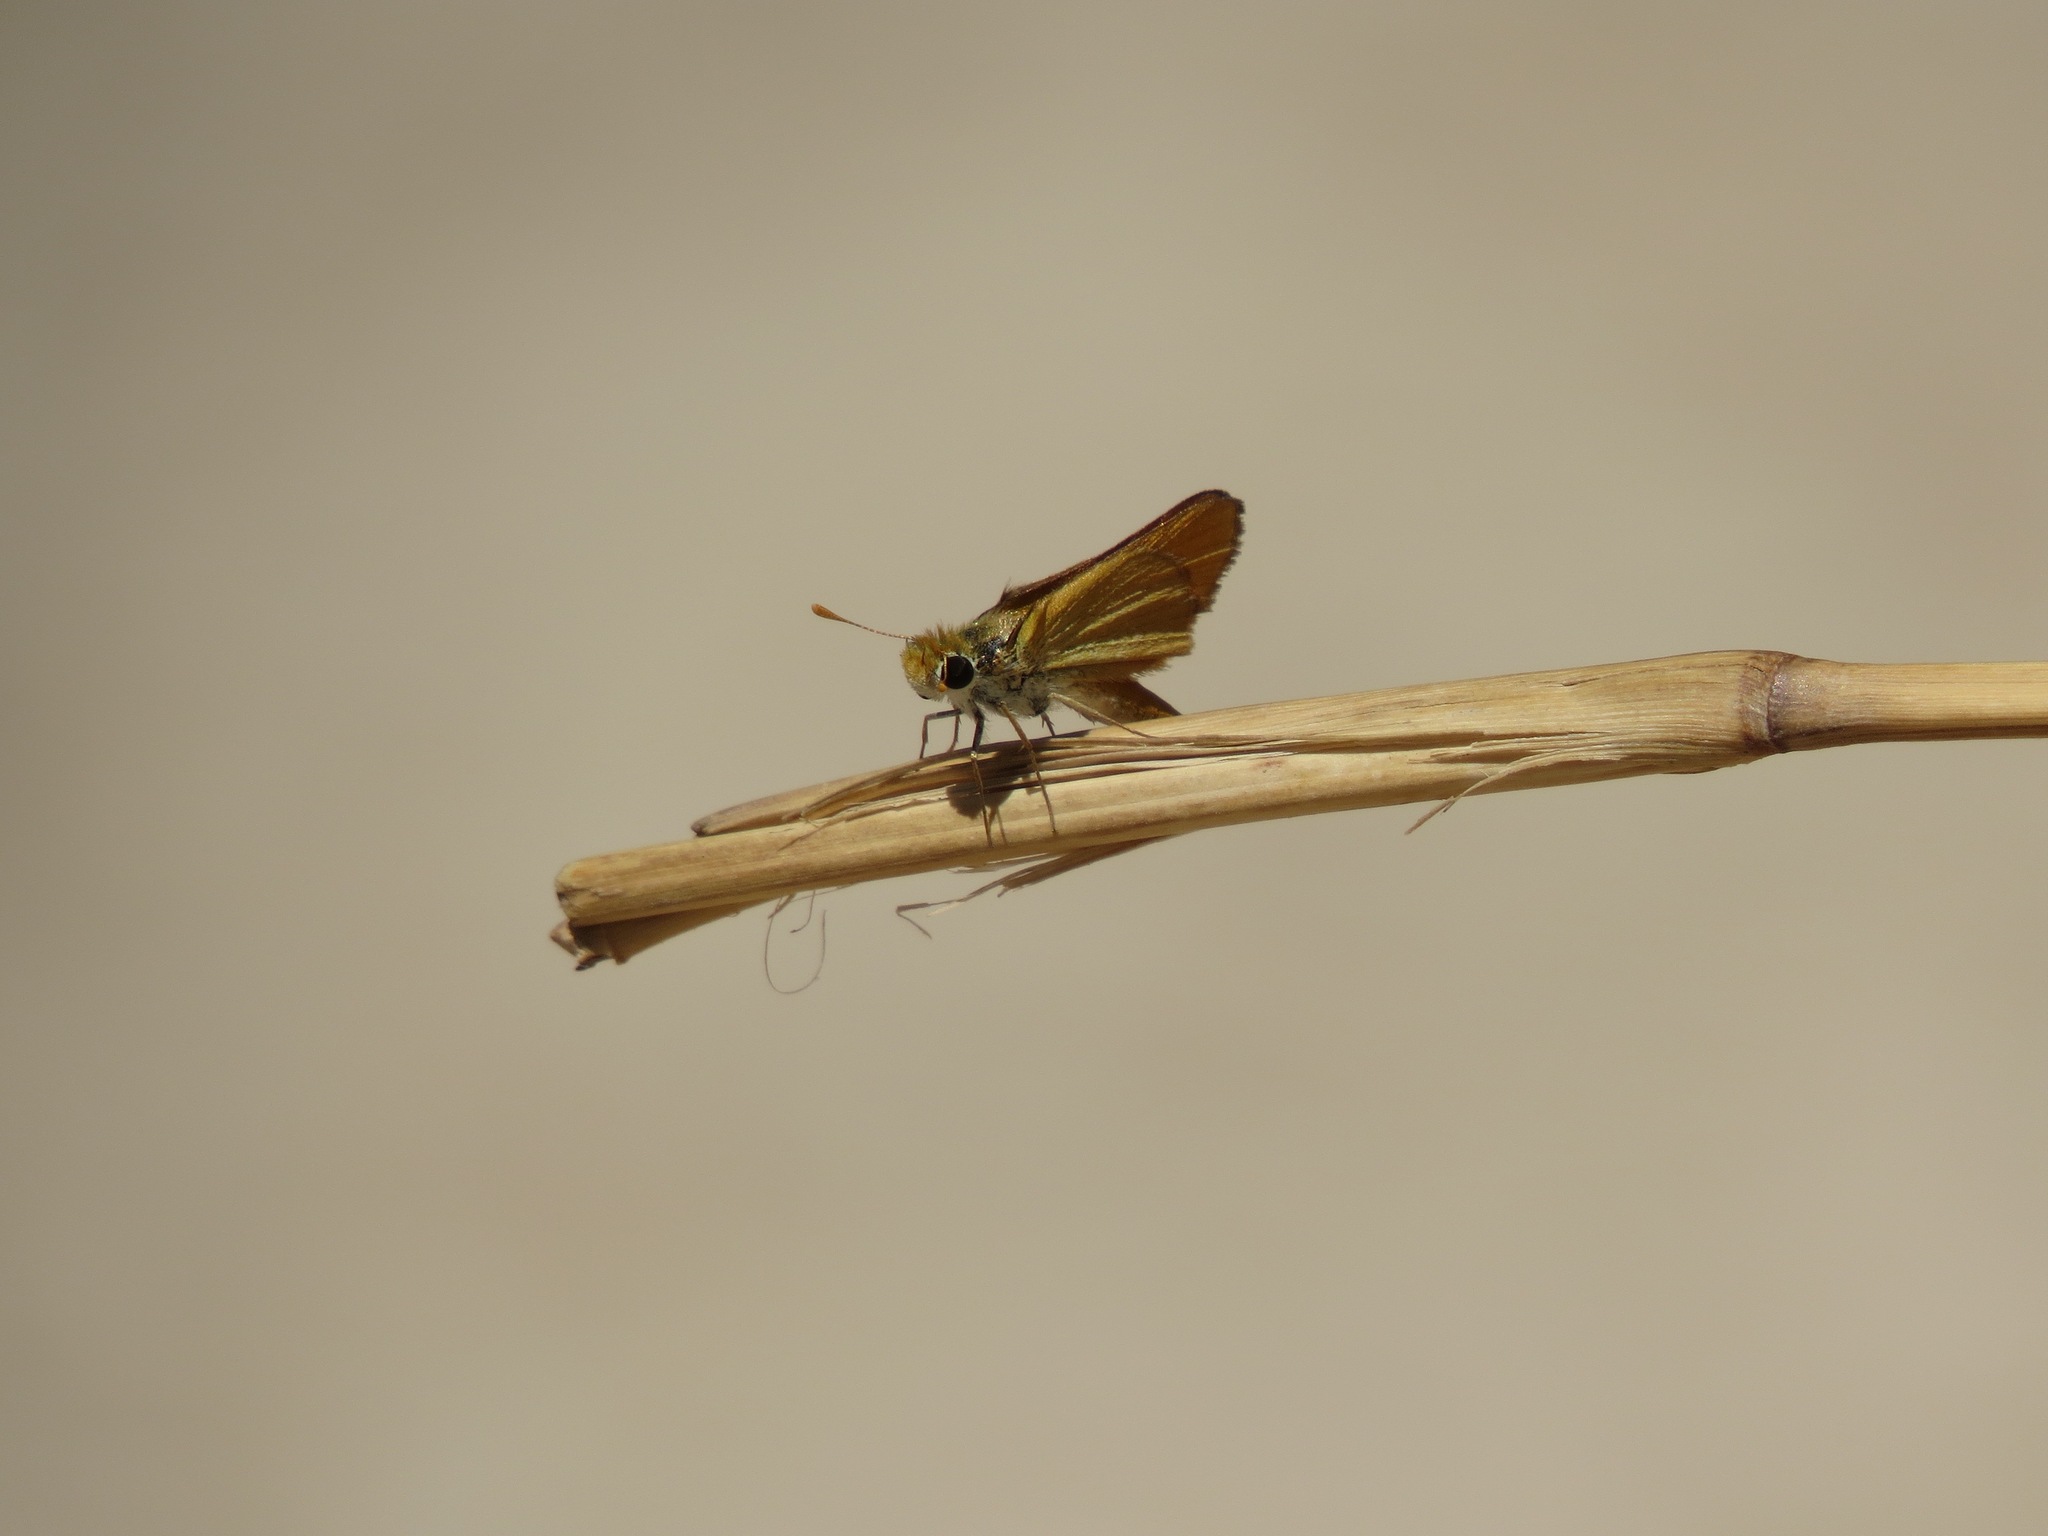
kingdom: Animalia
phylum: Arthropoda
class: Insecta
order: Lepidoptera
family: Hesperiidae
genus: Copaeodes
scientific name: Copaeodes aurantiaca
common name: Orange skipperling
